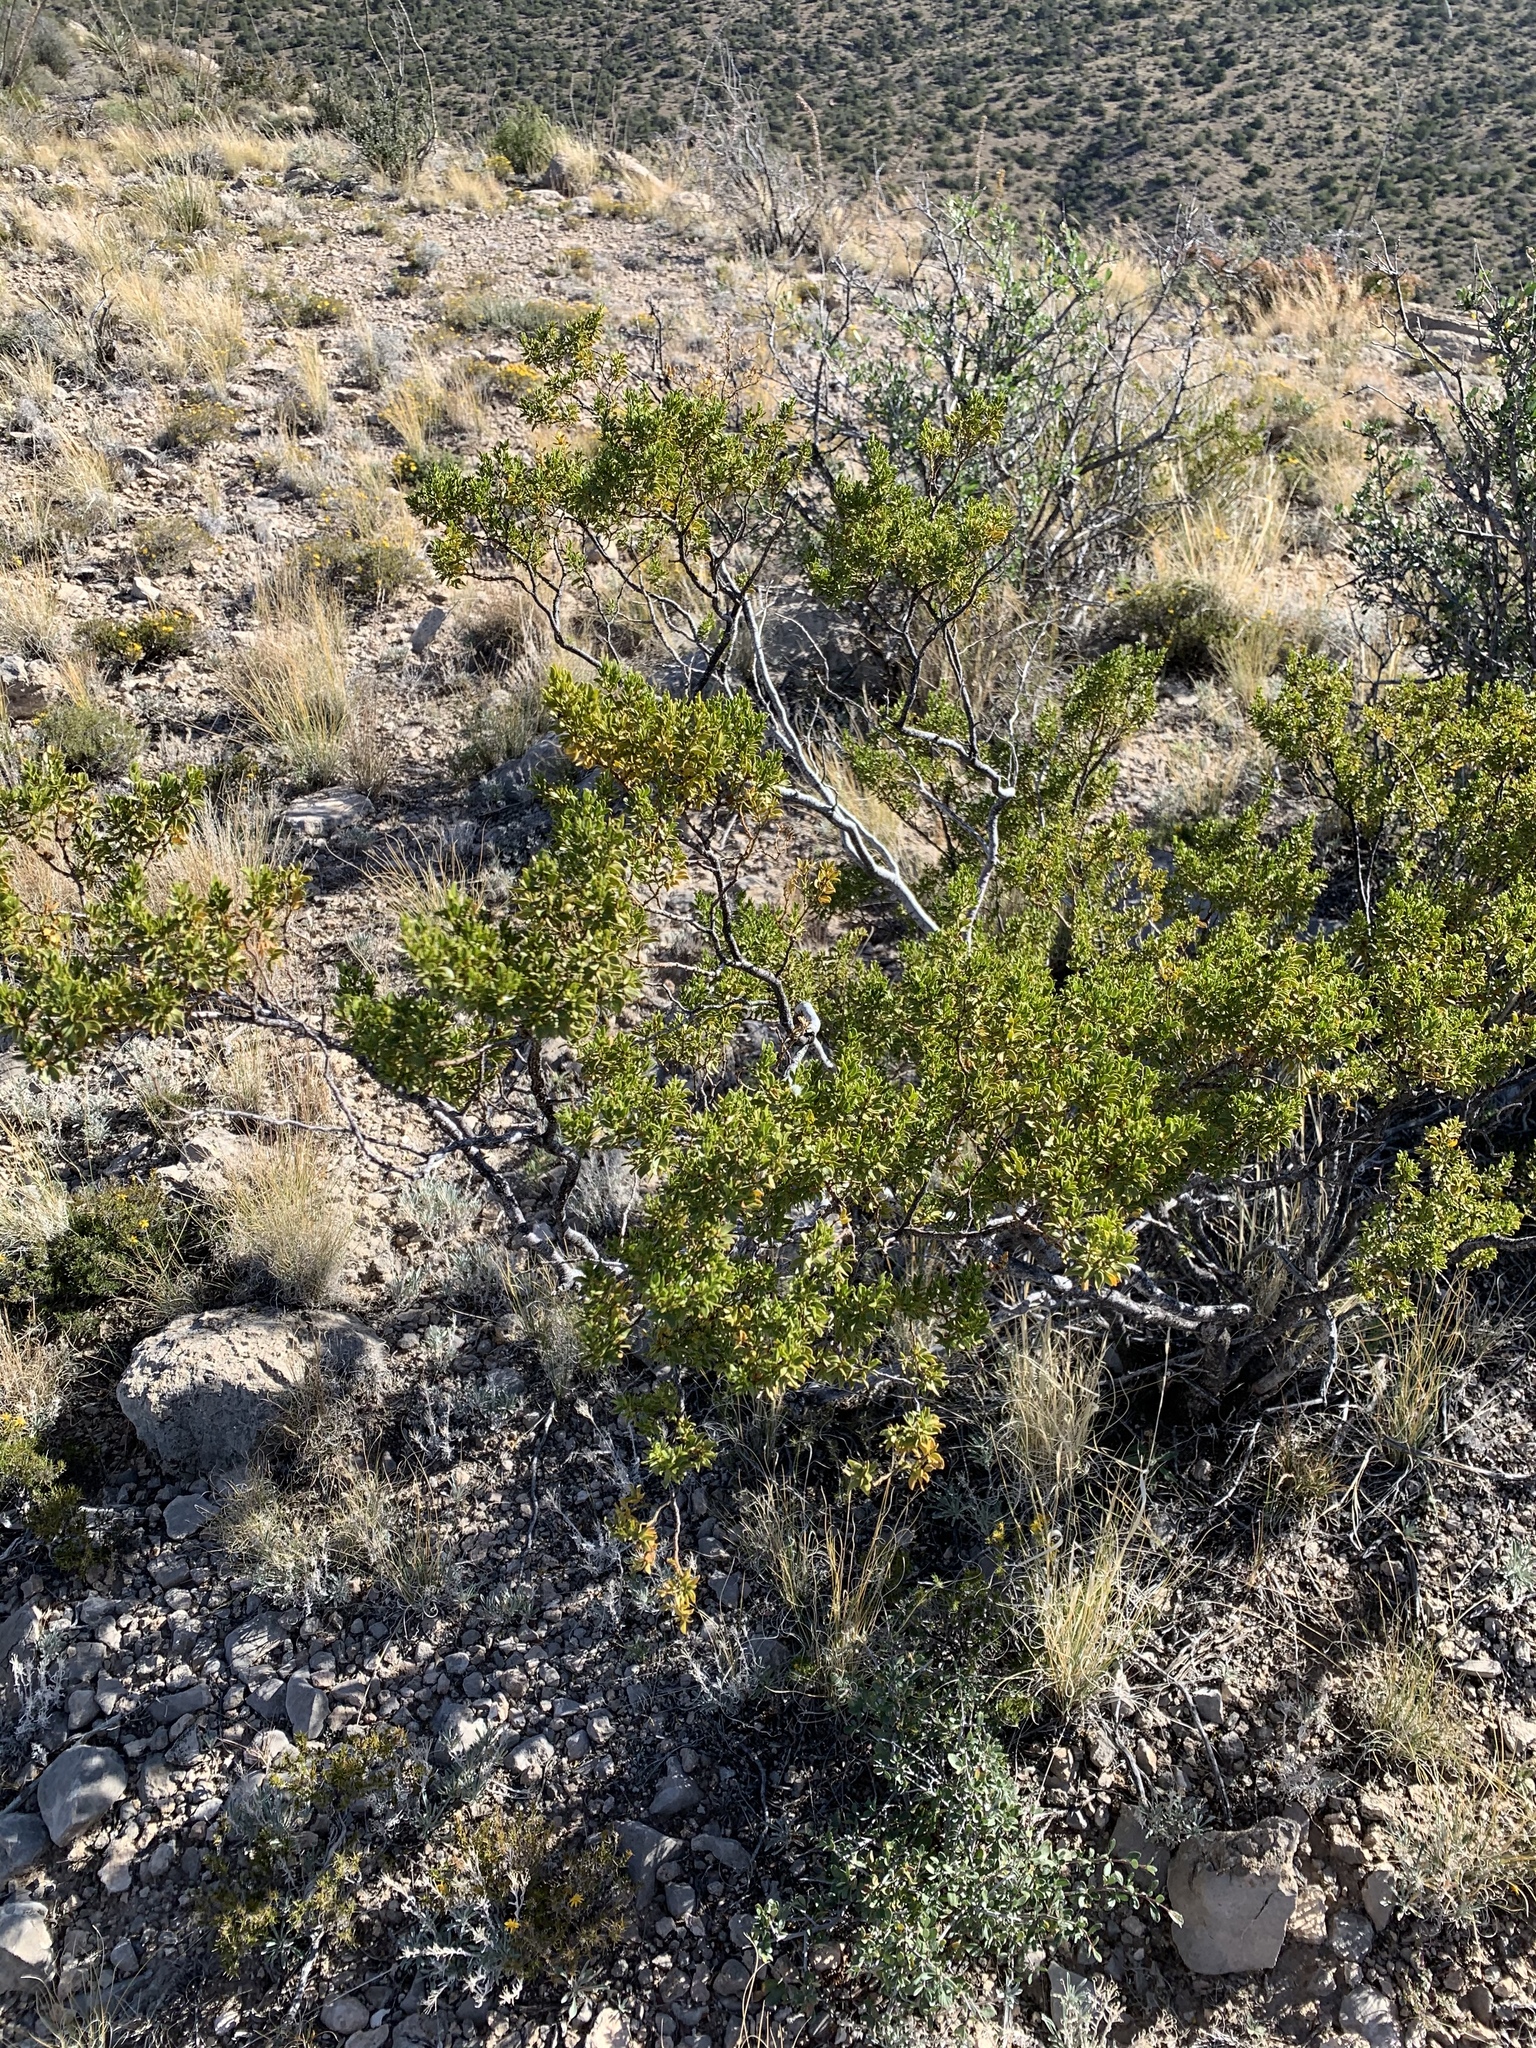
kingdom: Plantae
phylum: Tracheophyta
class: Magnoliopsida
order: Zygophyllales
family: Zygophyllaceae
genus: Larrea
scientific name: Larrea tridentata
